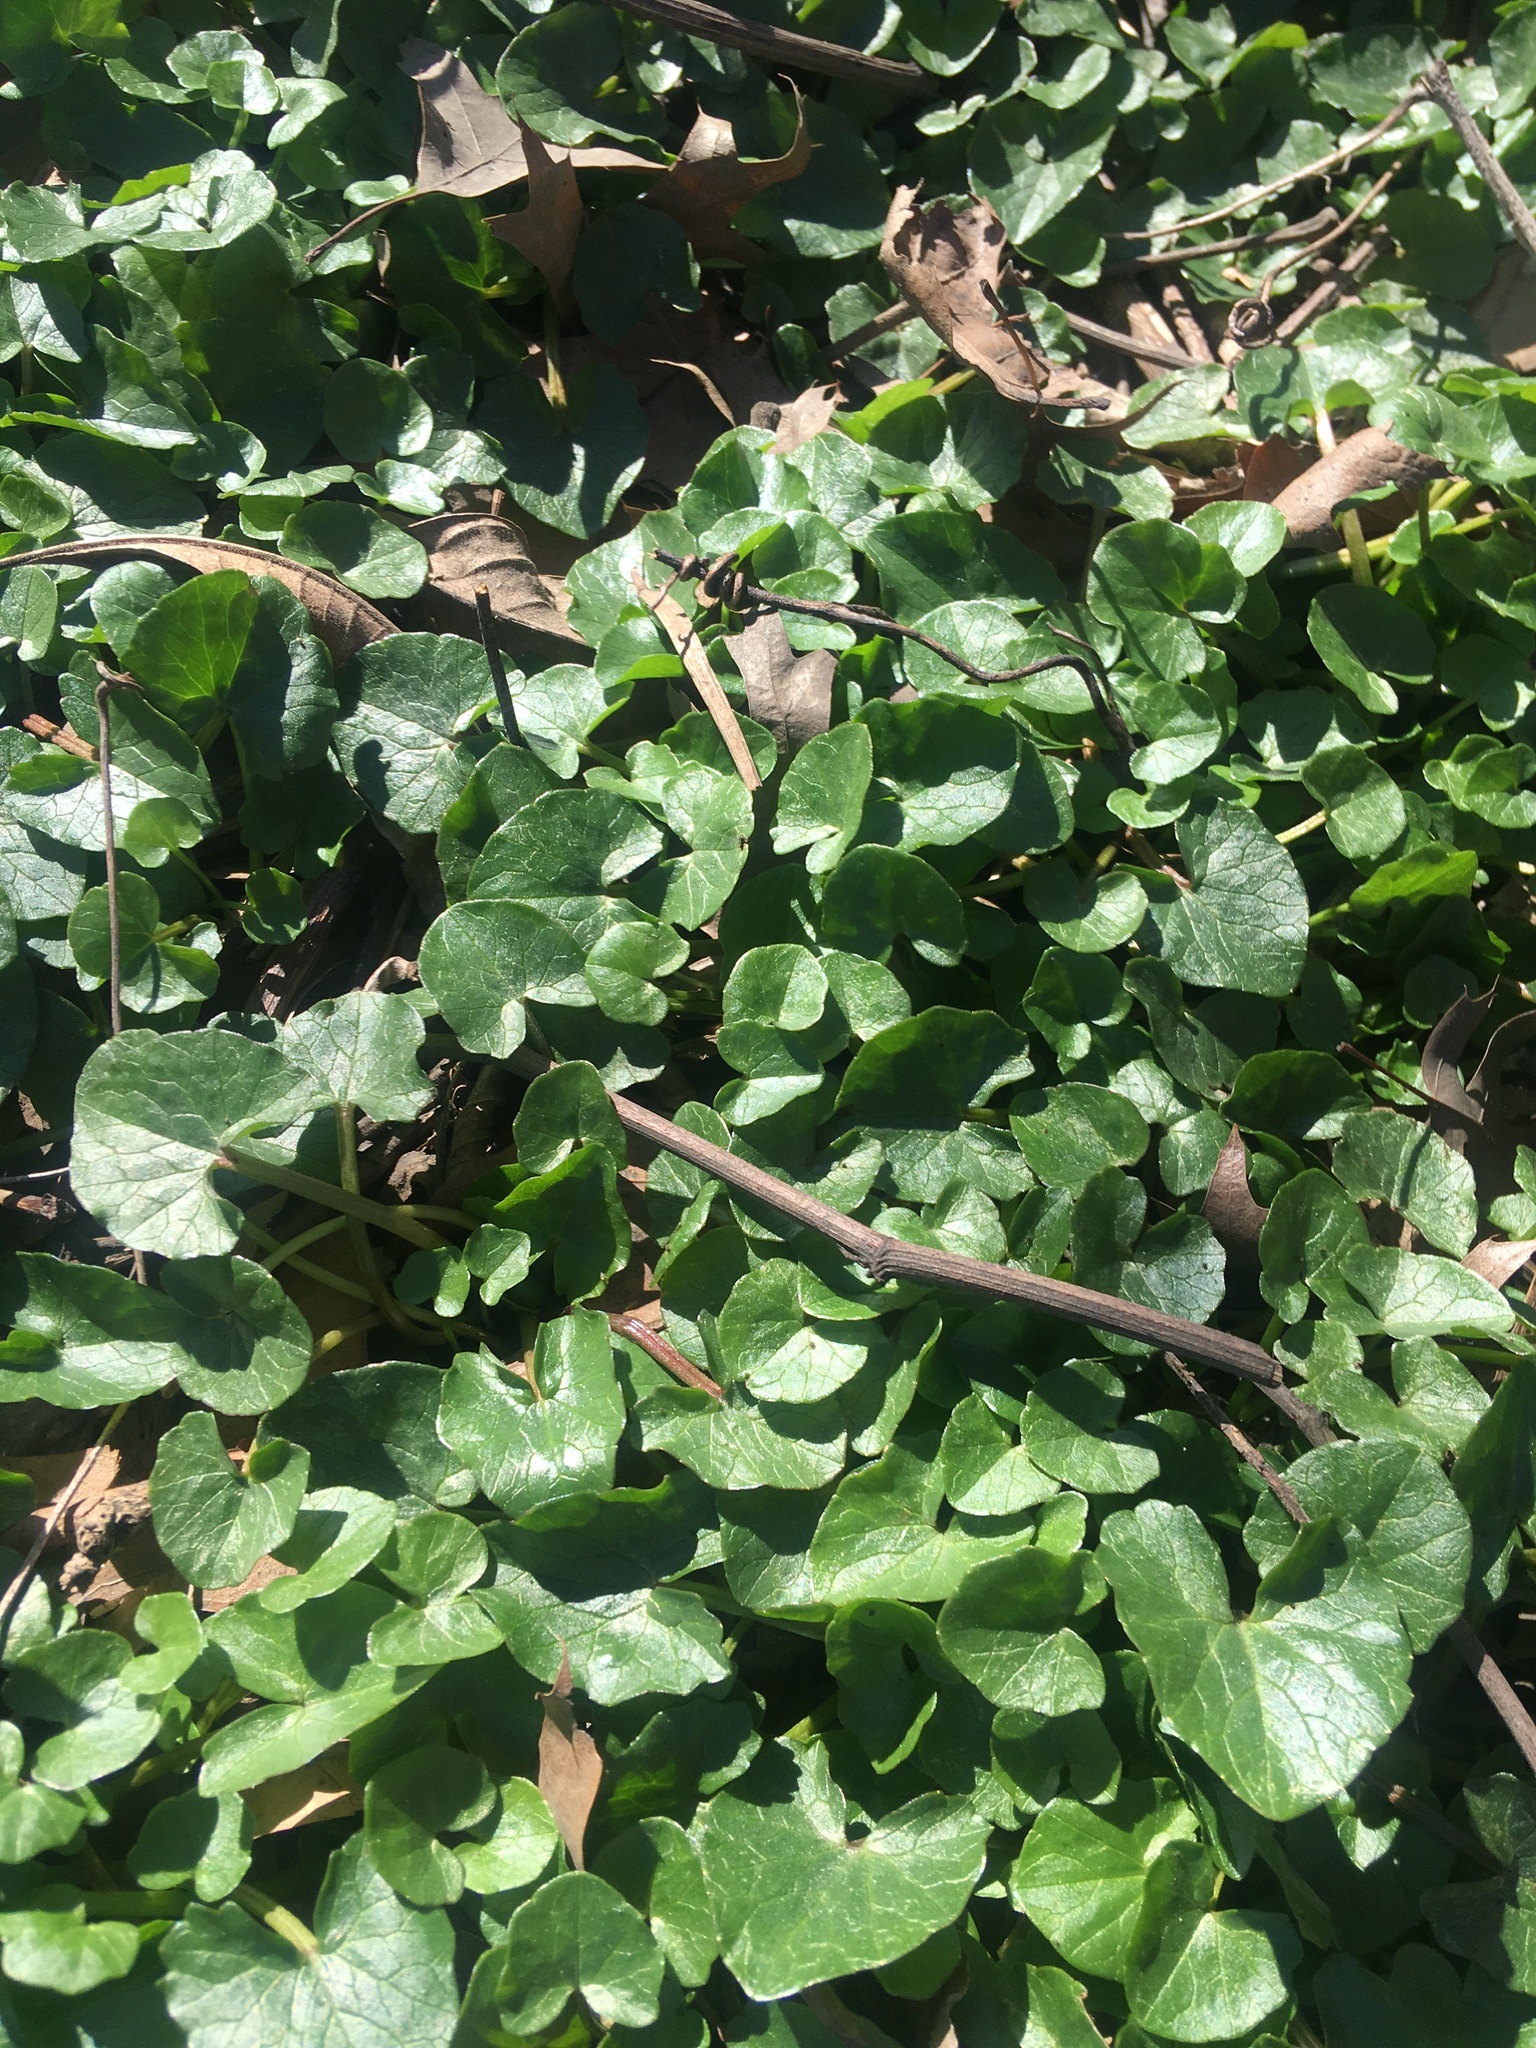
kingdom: Plantae
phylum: Tracheophyta
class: Magnoliopsida
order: Ranunculales
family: Ranunculaceae
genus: Ficaria
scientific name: Ficaria verna
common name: Lesser celandine
